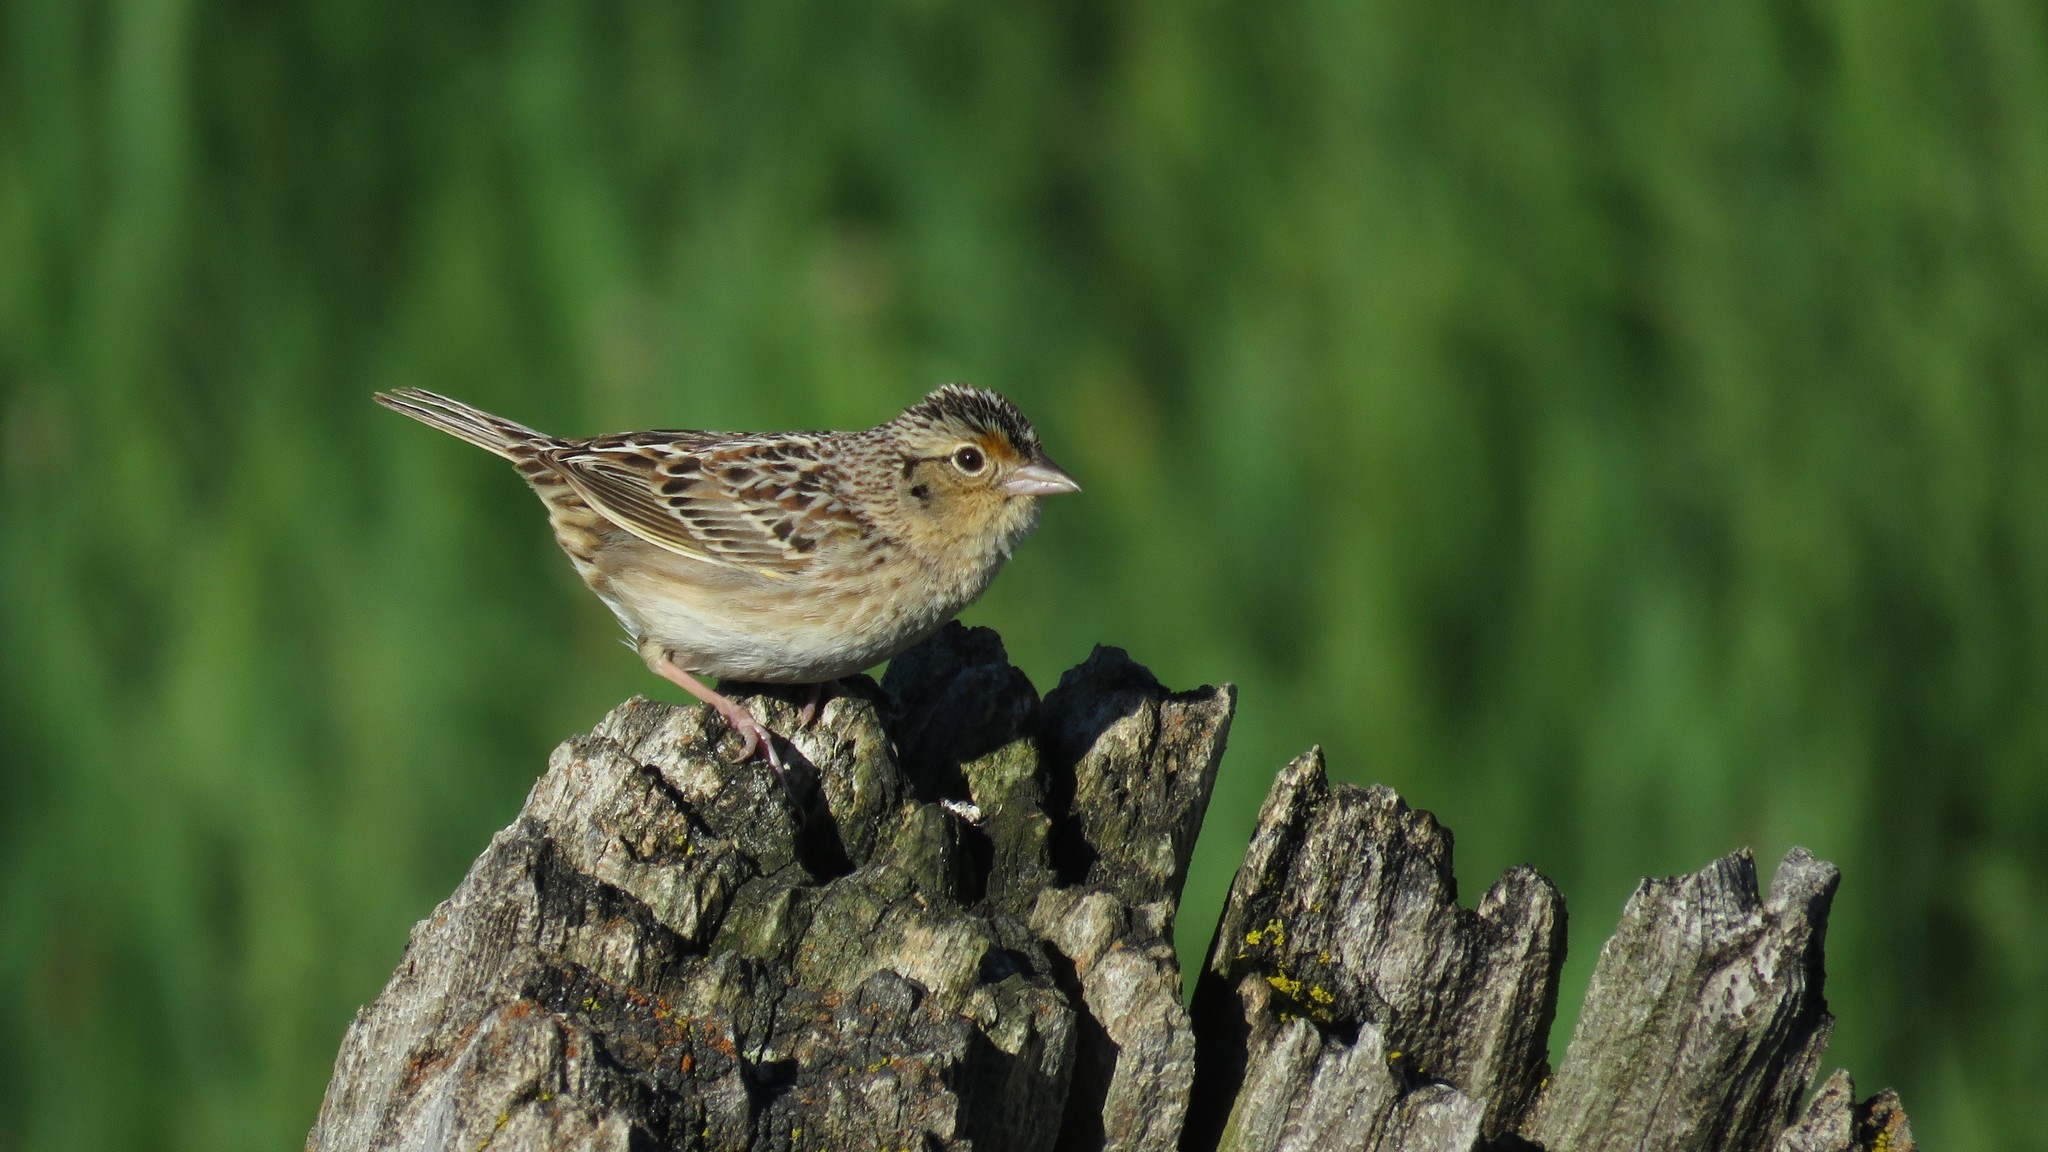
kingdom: Animalia
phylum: Chordata
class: Aves
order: Passeriformes
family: Passerellidae
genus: Ammodramus
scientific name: Ammodramus savannarum
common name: Grasshopper sparrow
